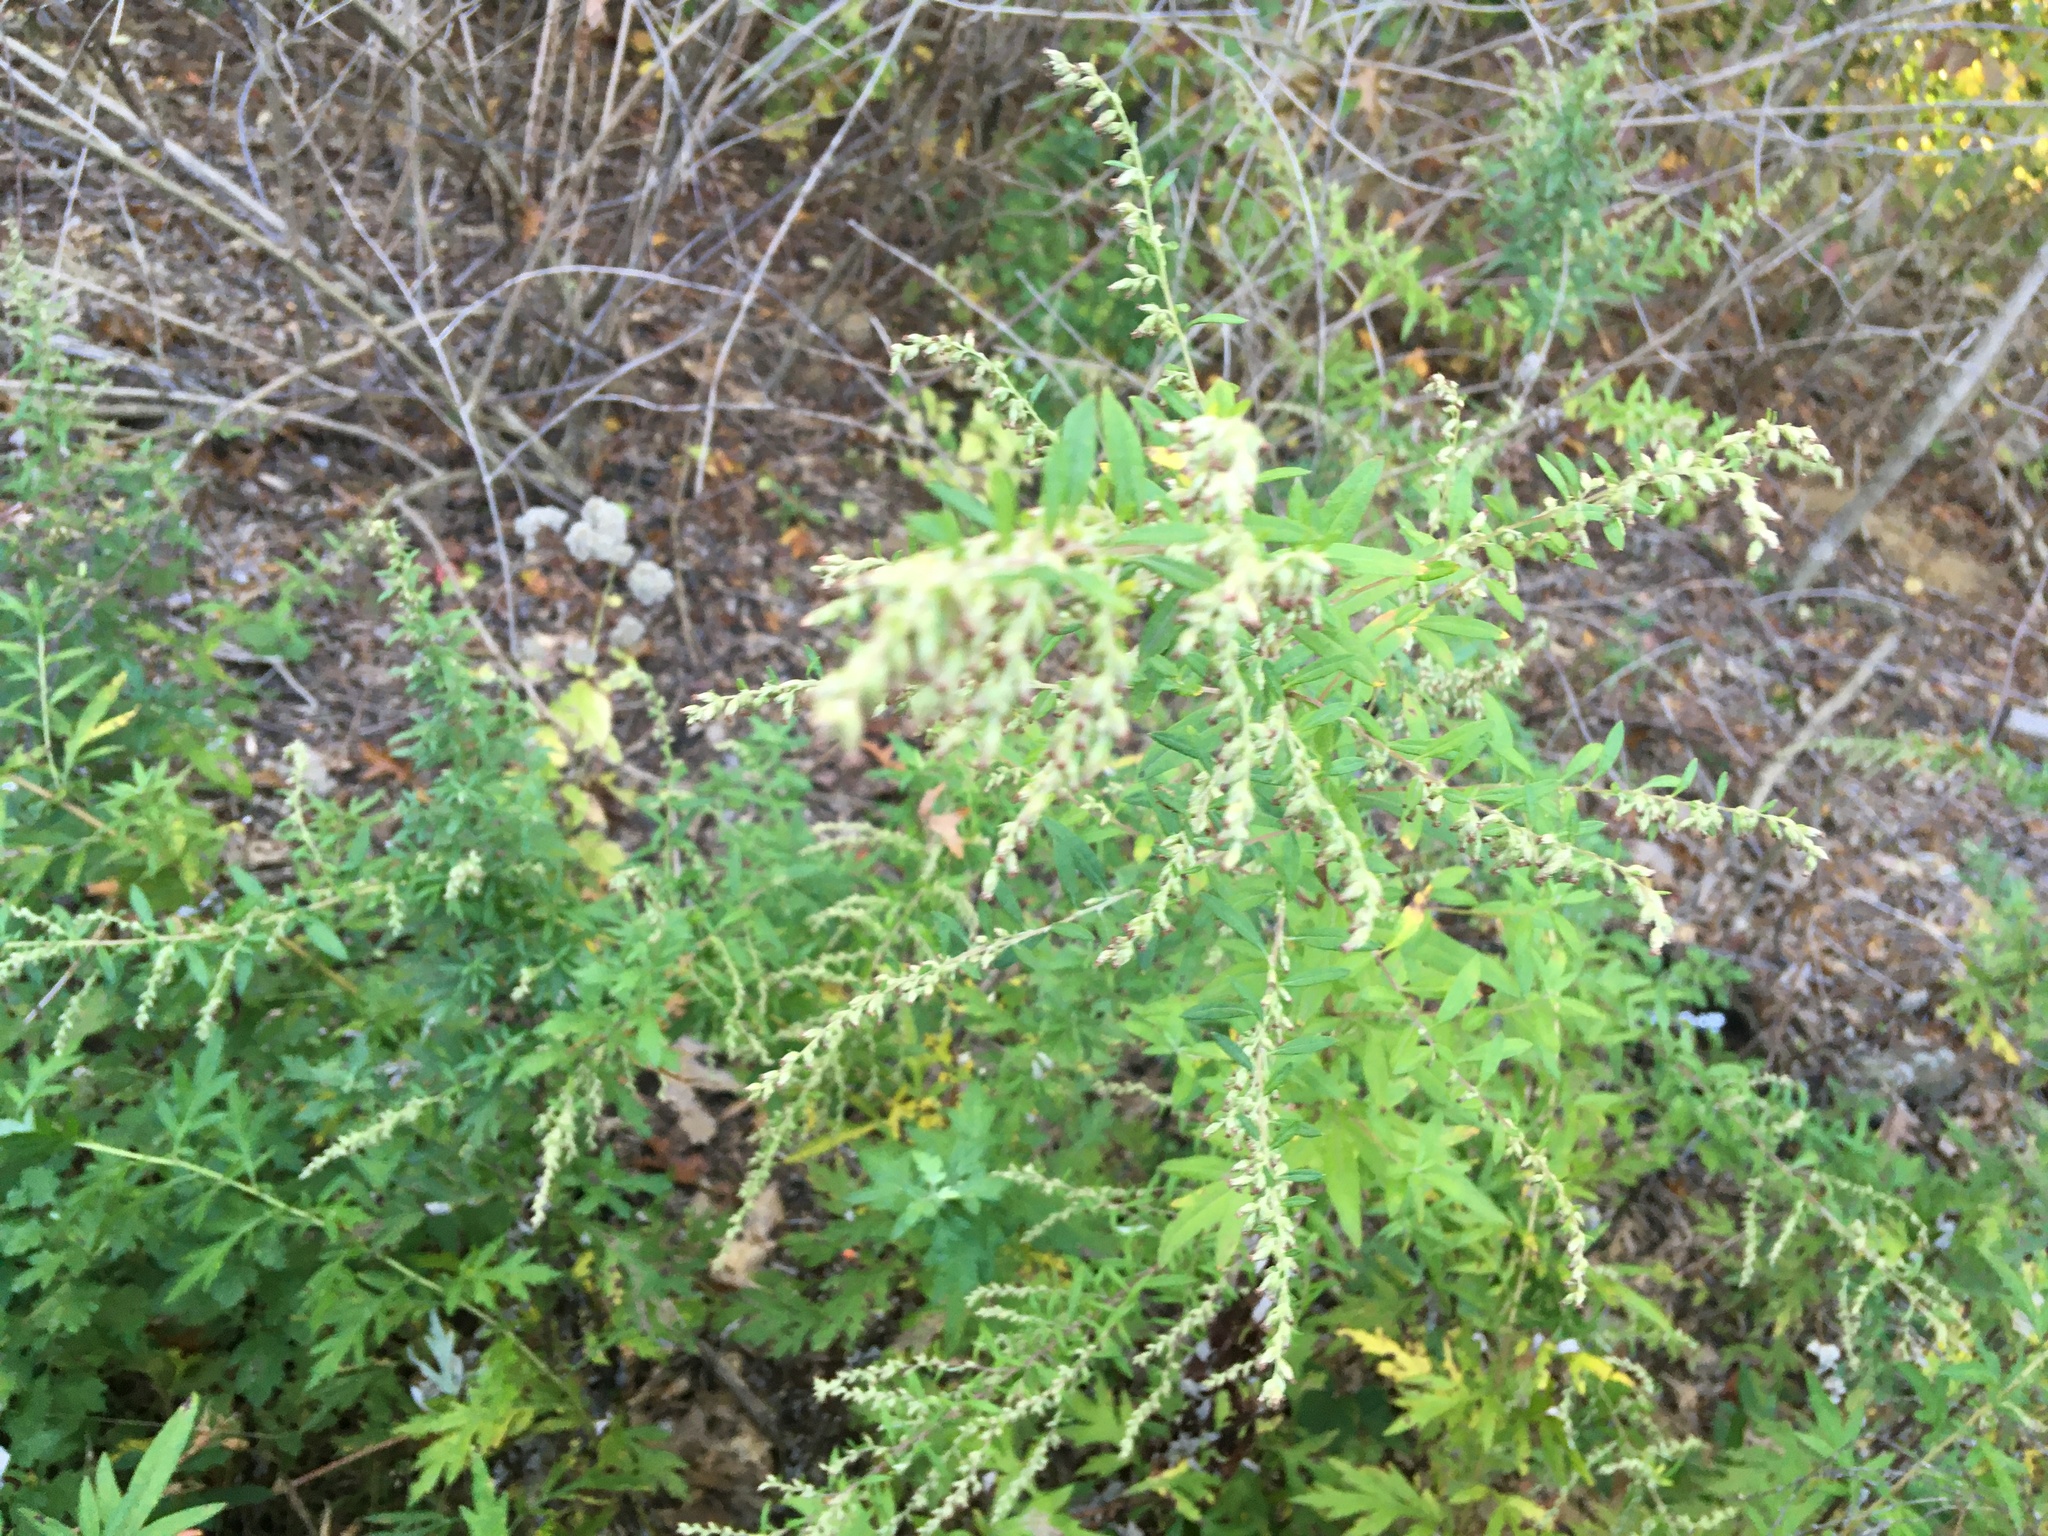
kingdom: Plantae
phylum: Tracheophyta
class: Magnoliopsida
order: Asterales
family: Asteraceae
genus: Artemisia
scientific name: Artemisia vulgaris
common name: Mugwort
